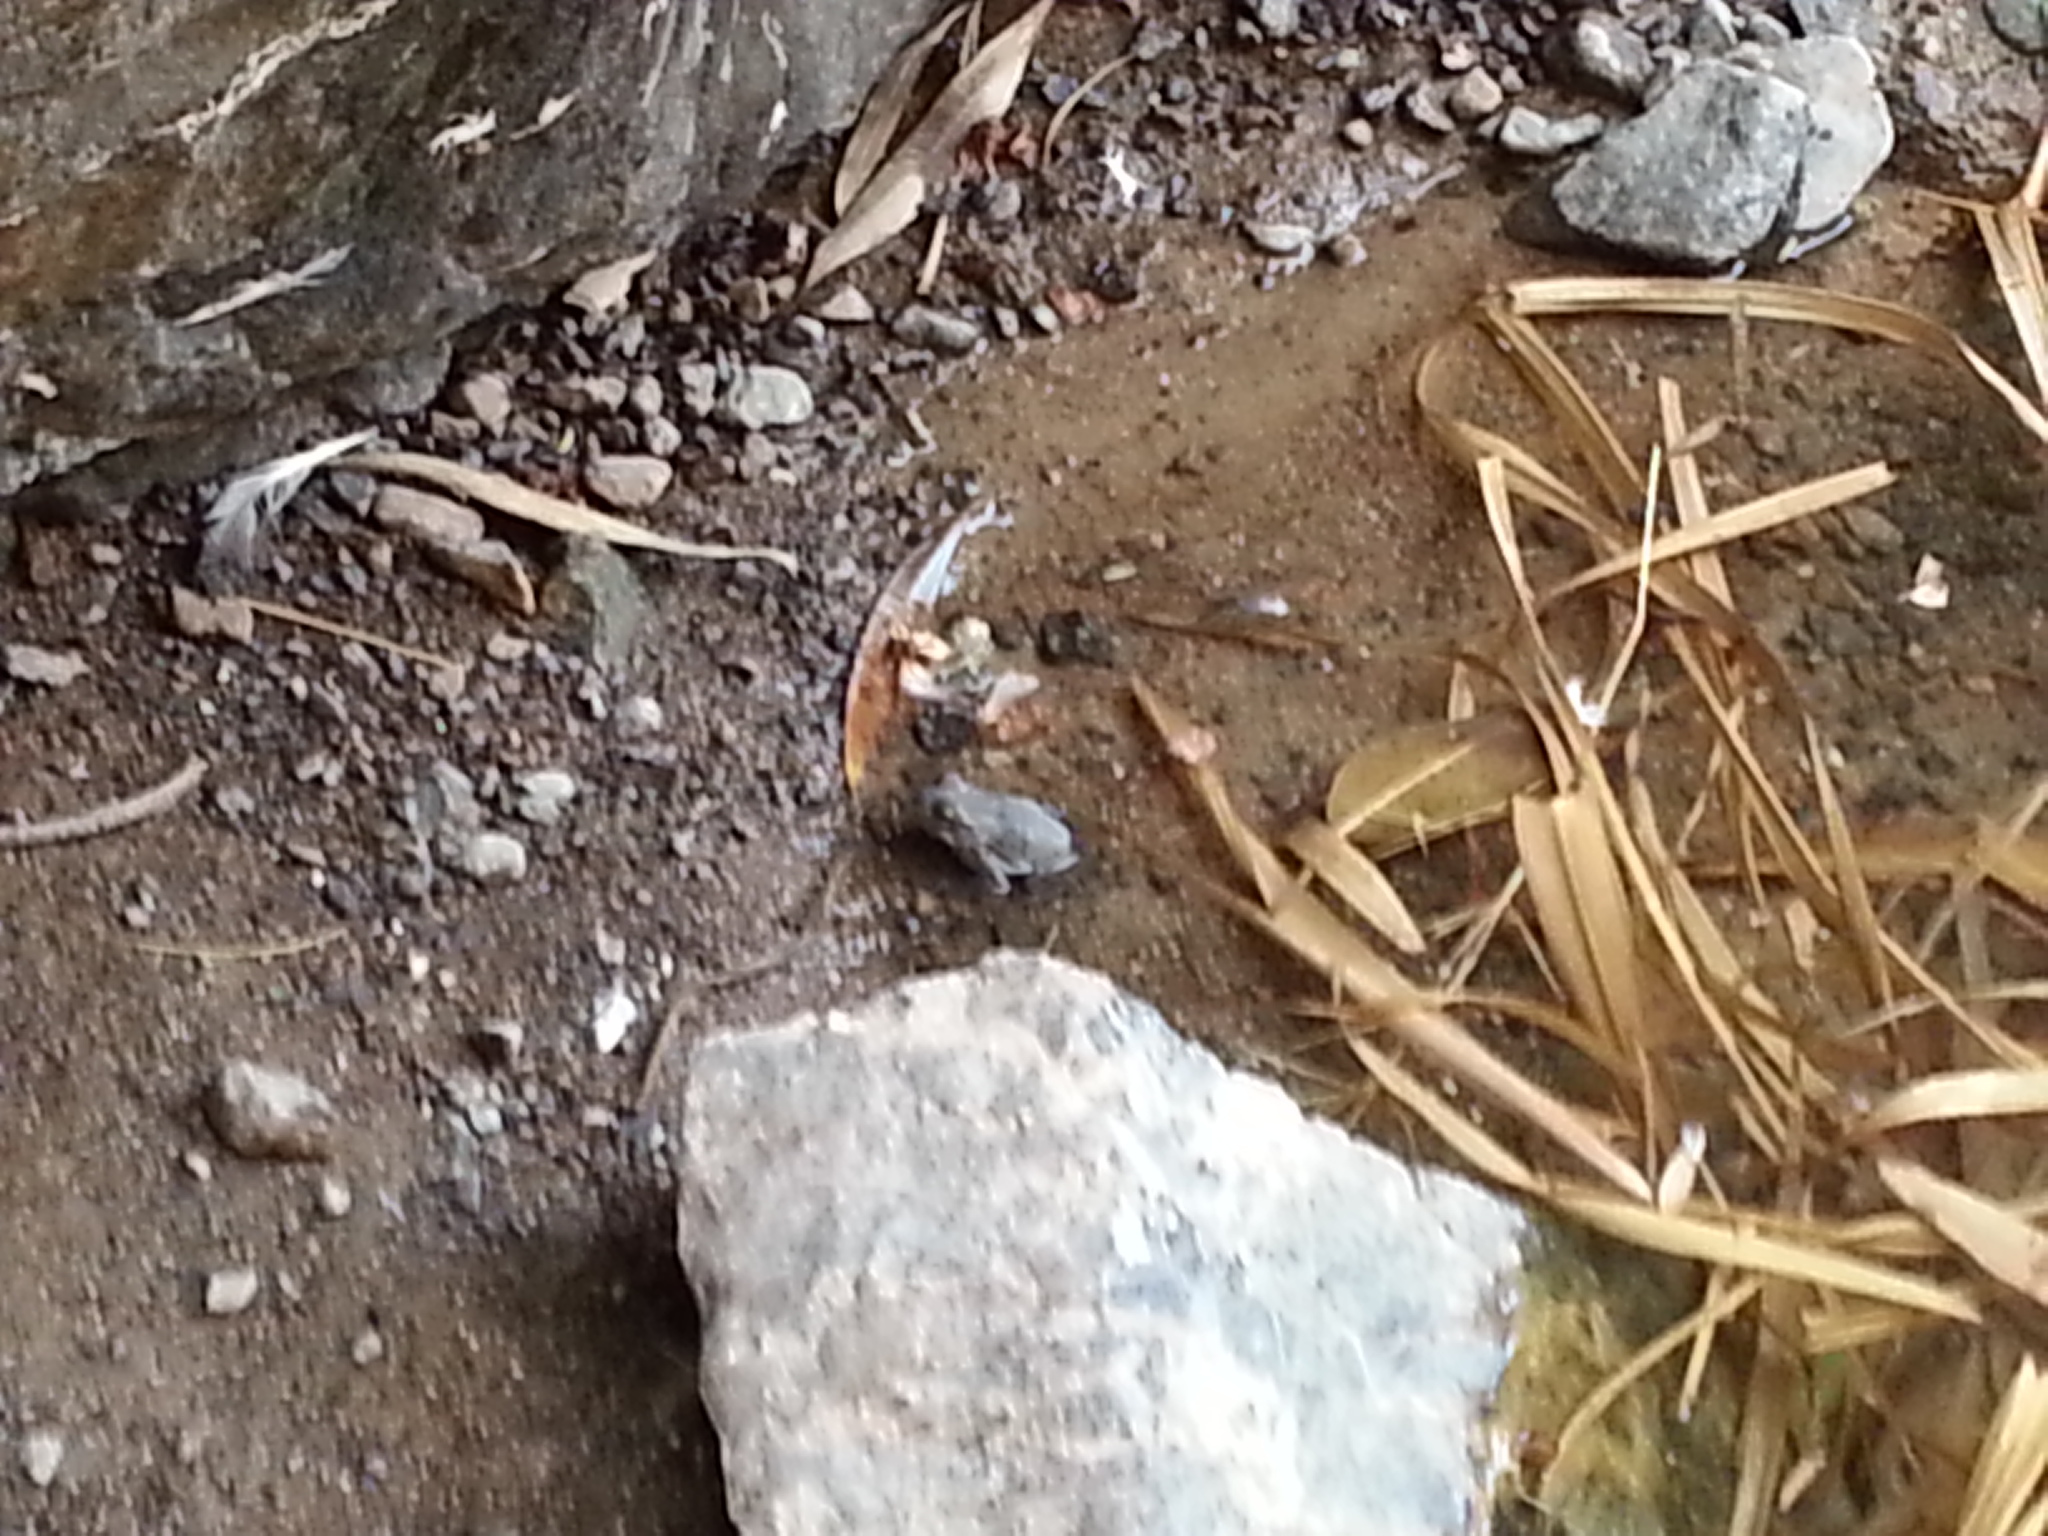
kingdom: Animalia
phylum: Chordata
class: Amphibia
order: Anura
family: Bufonidae
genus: Sclerophrys
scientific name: Sclerophrys arabica
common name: Arabian toad
